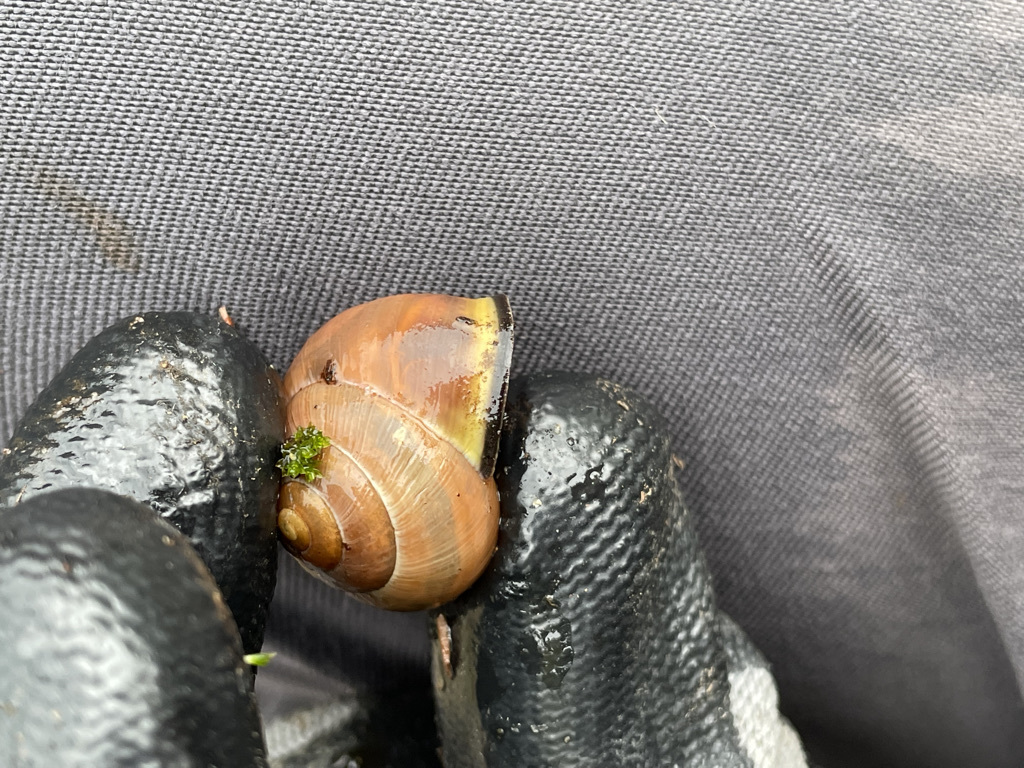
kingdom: Animalia
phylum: Mollusca
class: Gastropoda
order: Stylommatophora
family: Helicidae
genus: Cepaea
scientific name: Cepaea nemoralis
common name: Grovesnail
